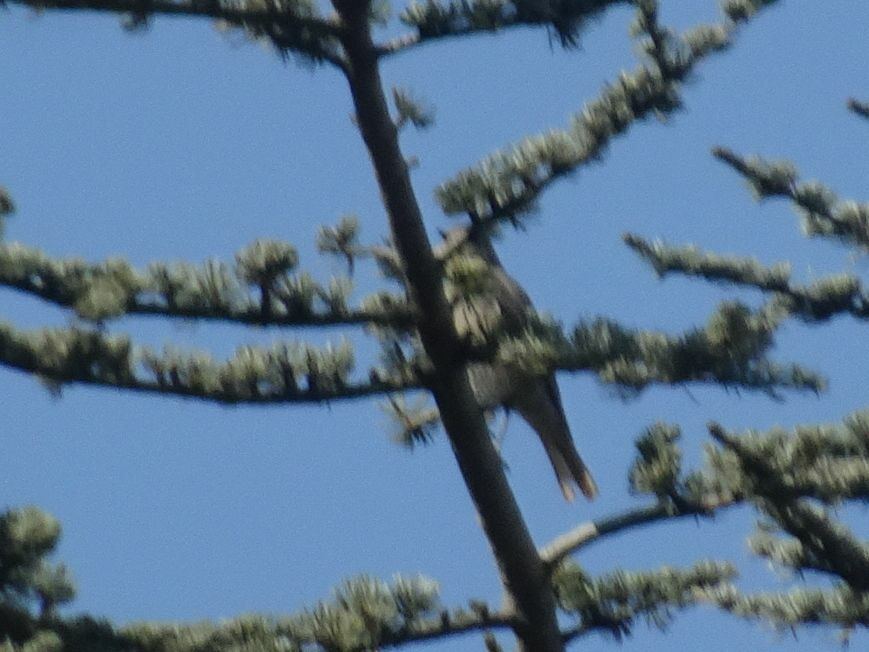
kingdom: Animalia
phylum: Chordata
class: Aves
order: Passeriformes
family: Muscicapidae
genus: Phoenicurus
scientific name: Phoenicurus ochruros
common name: Black redstart
